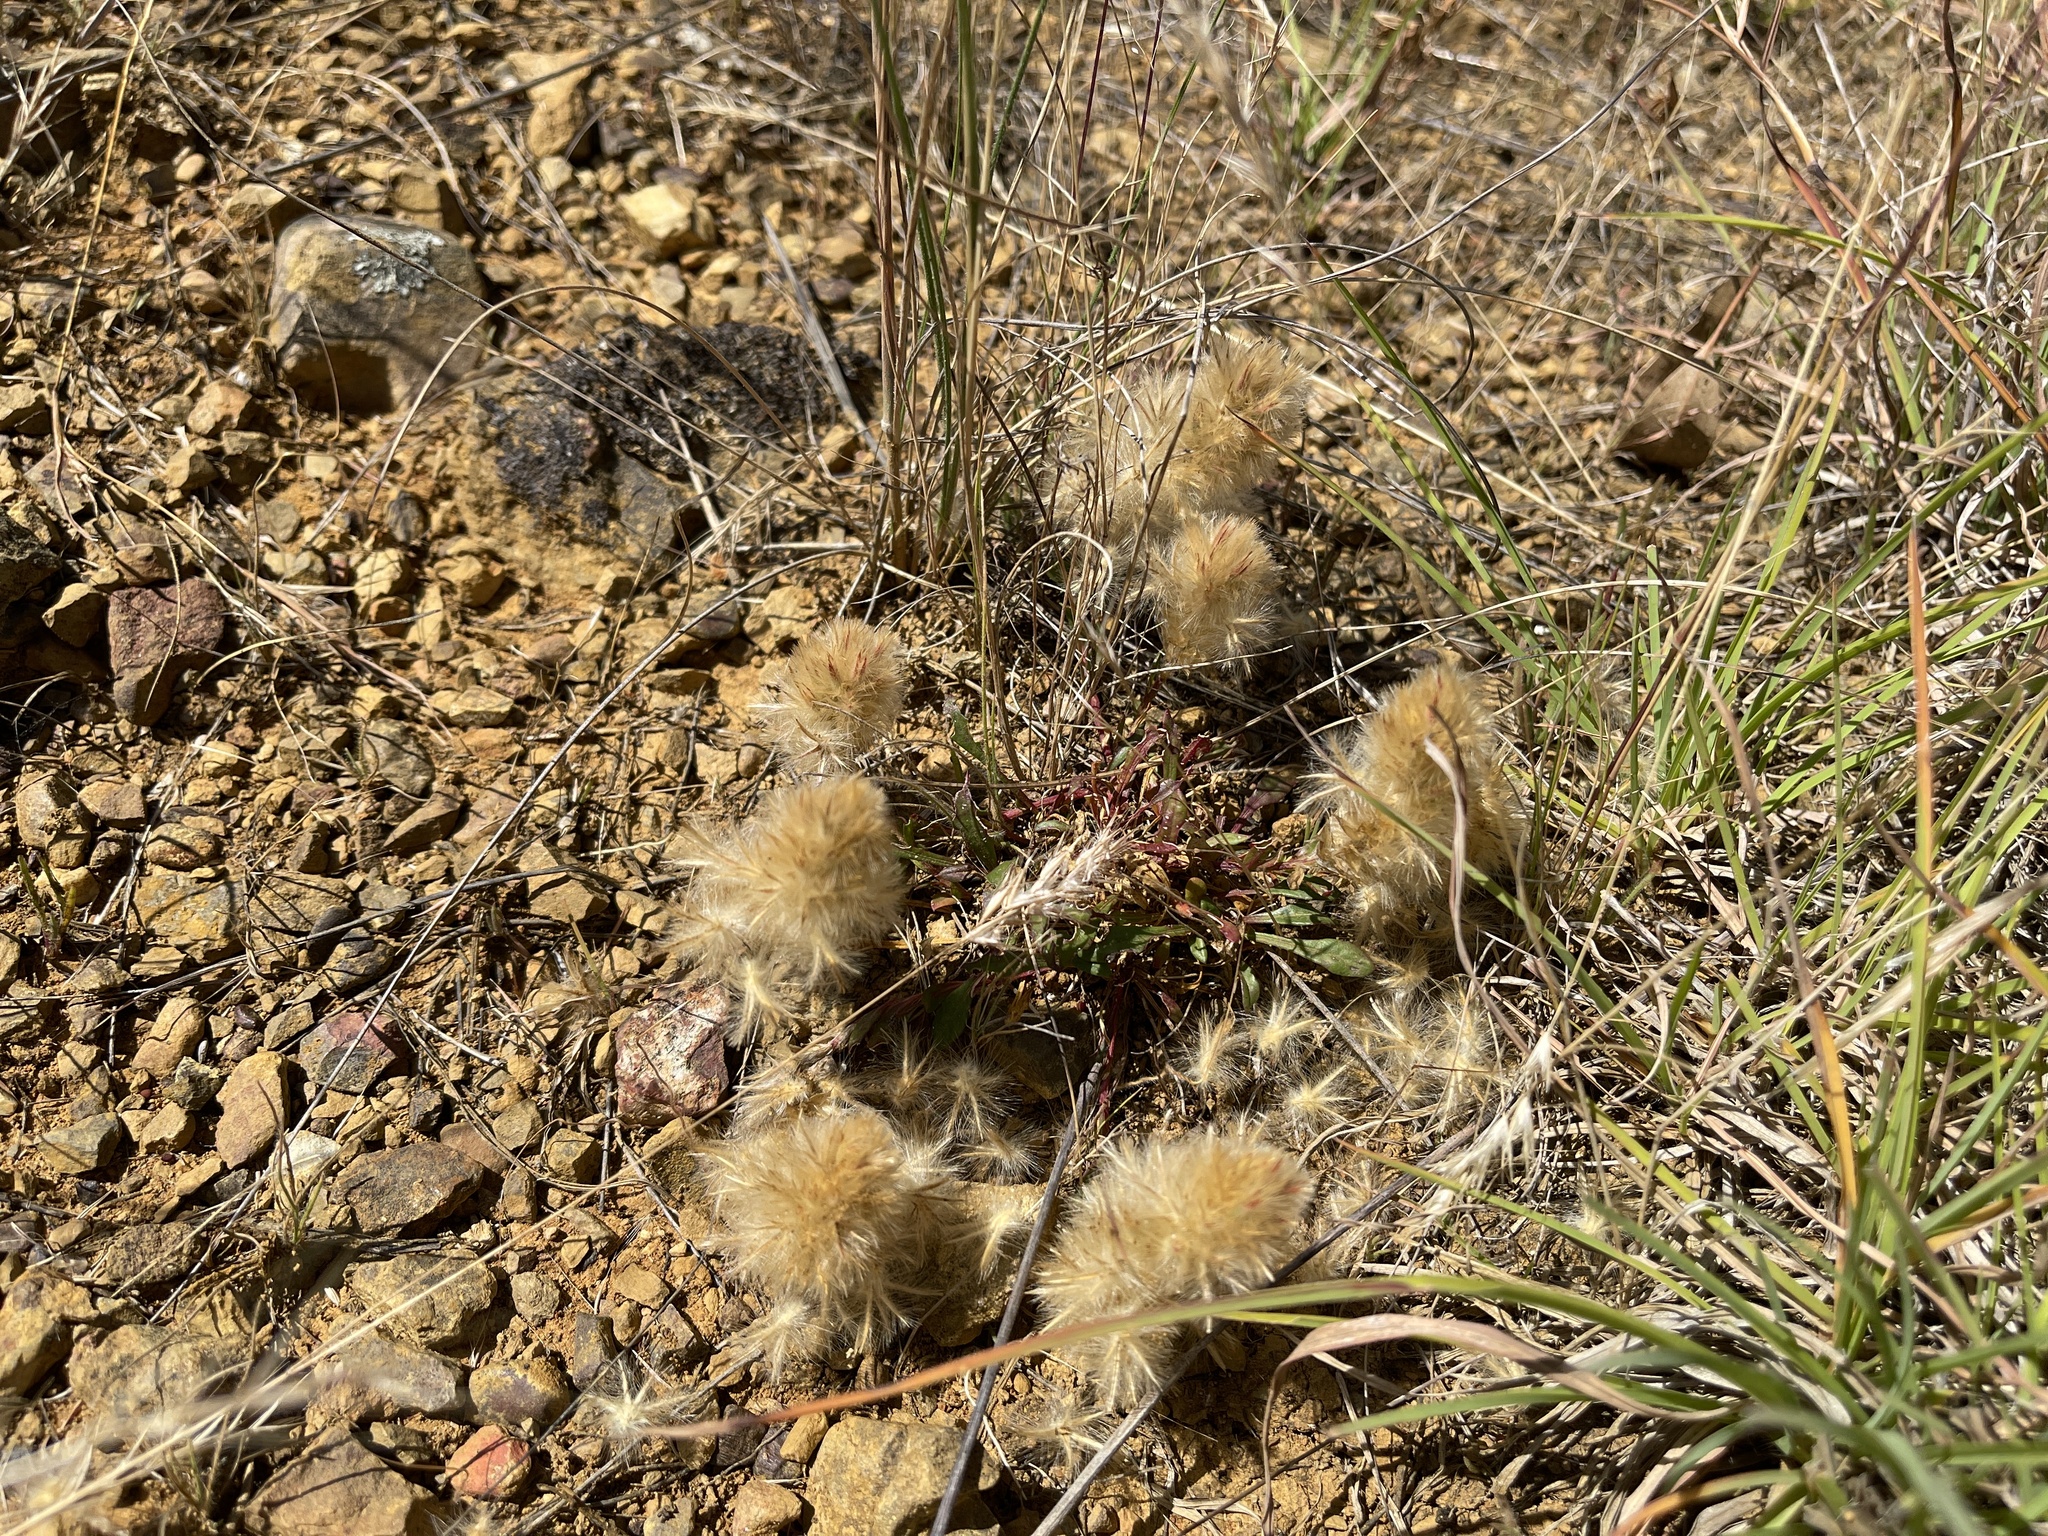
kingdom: Plantae
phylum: Tracheophyta
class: Magnoliopsida
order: Caryophyllales
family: Amaranthaceae
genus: Ptilotus
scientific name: Ptilotus spathulatus
